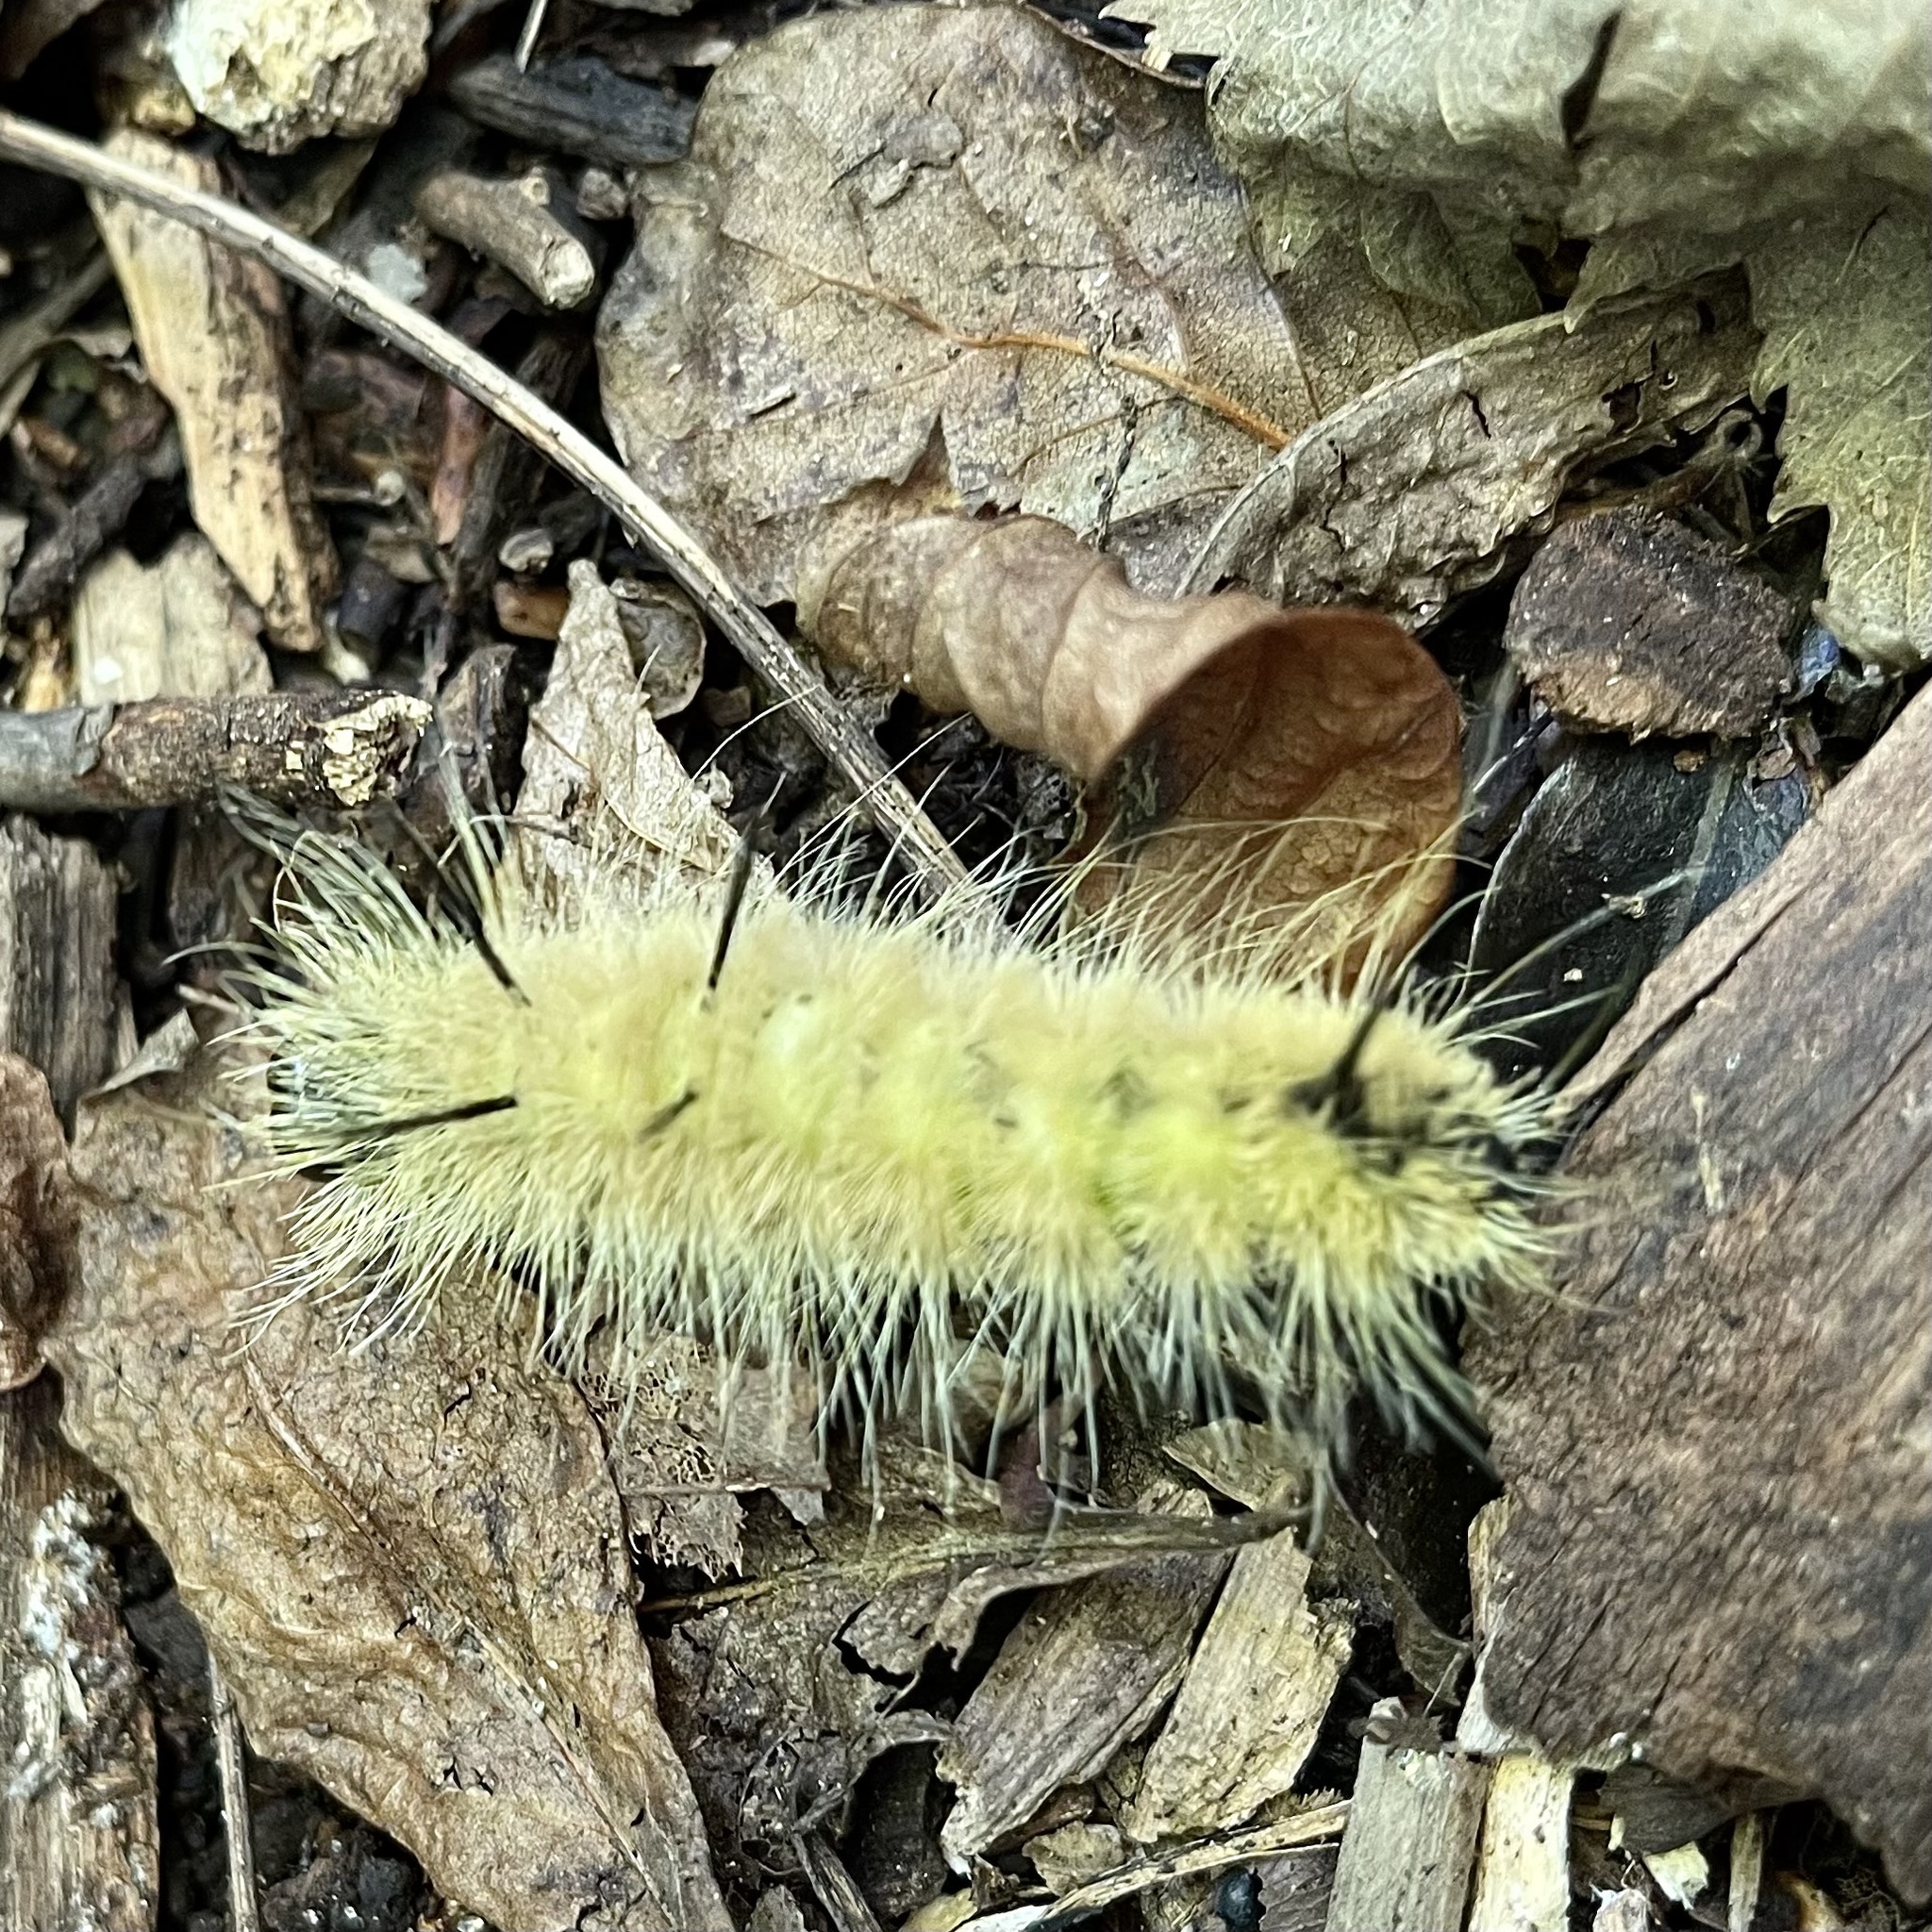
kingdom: Animalia
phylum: Arthropoda
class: Insecta
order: Lepidoptera
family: Noctuidae
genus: Acronicta
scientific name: Acronicta americana
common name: American dagger
